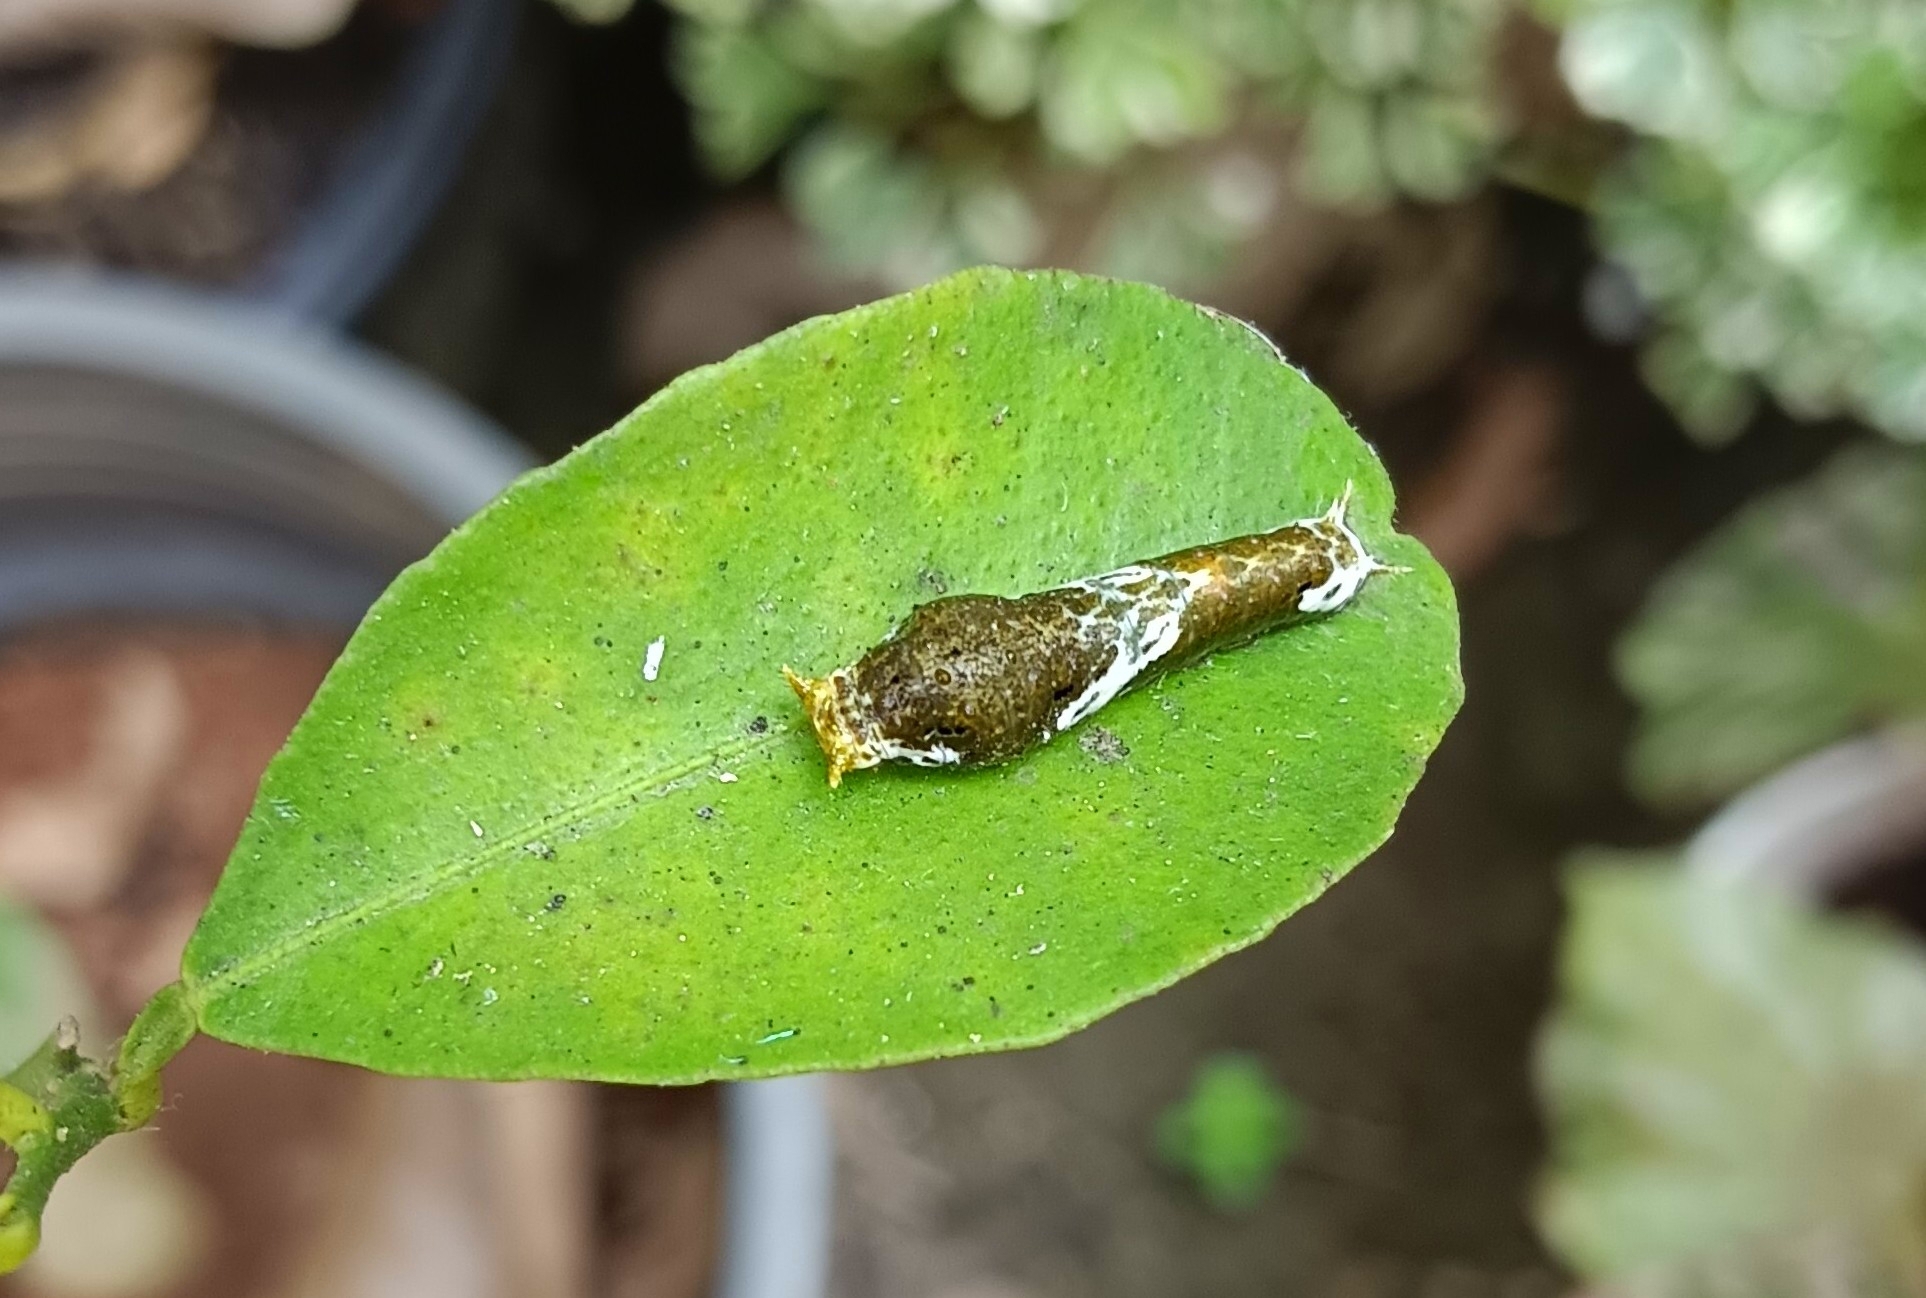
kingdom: Animalia
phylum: Arthropoda
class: Insecta
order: Lepidoptera
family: Papilionidae
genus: Papilio
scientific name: Papilio polytes
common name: Common mormon
